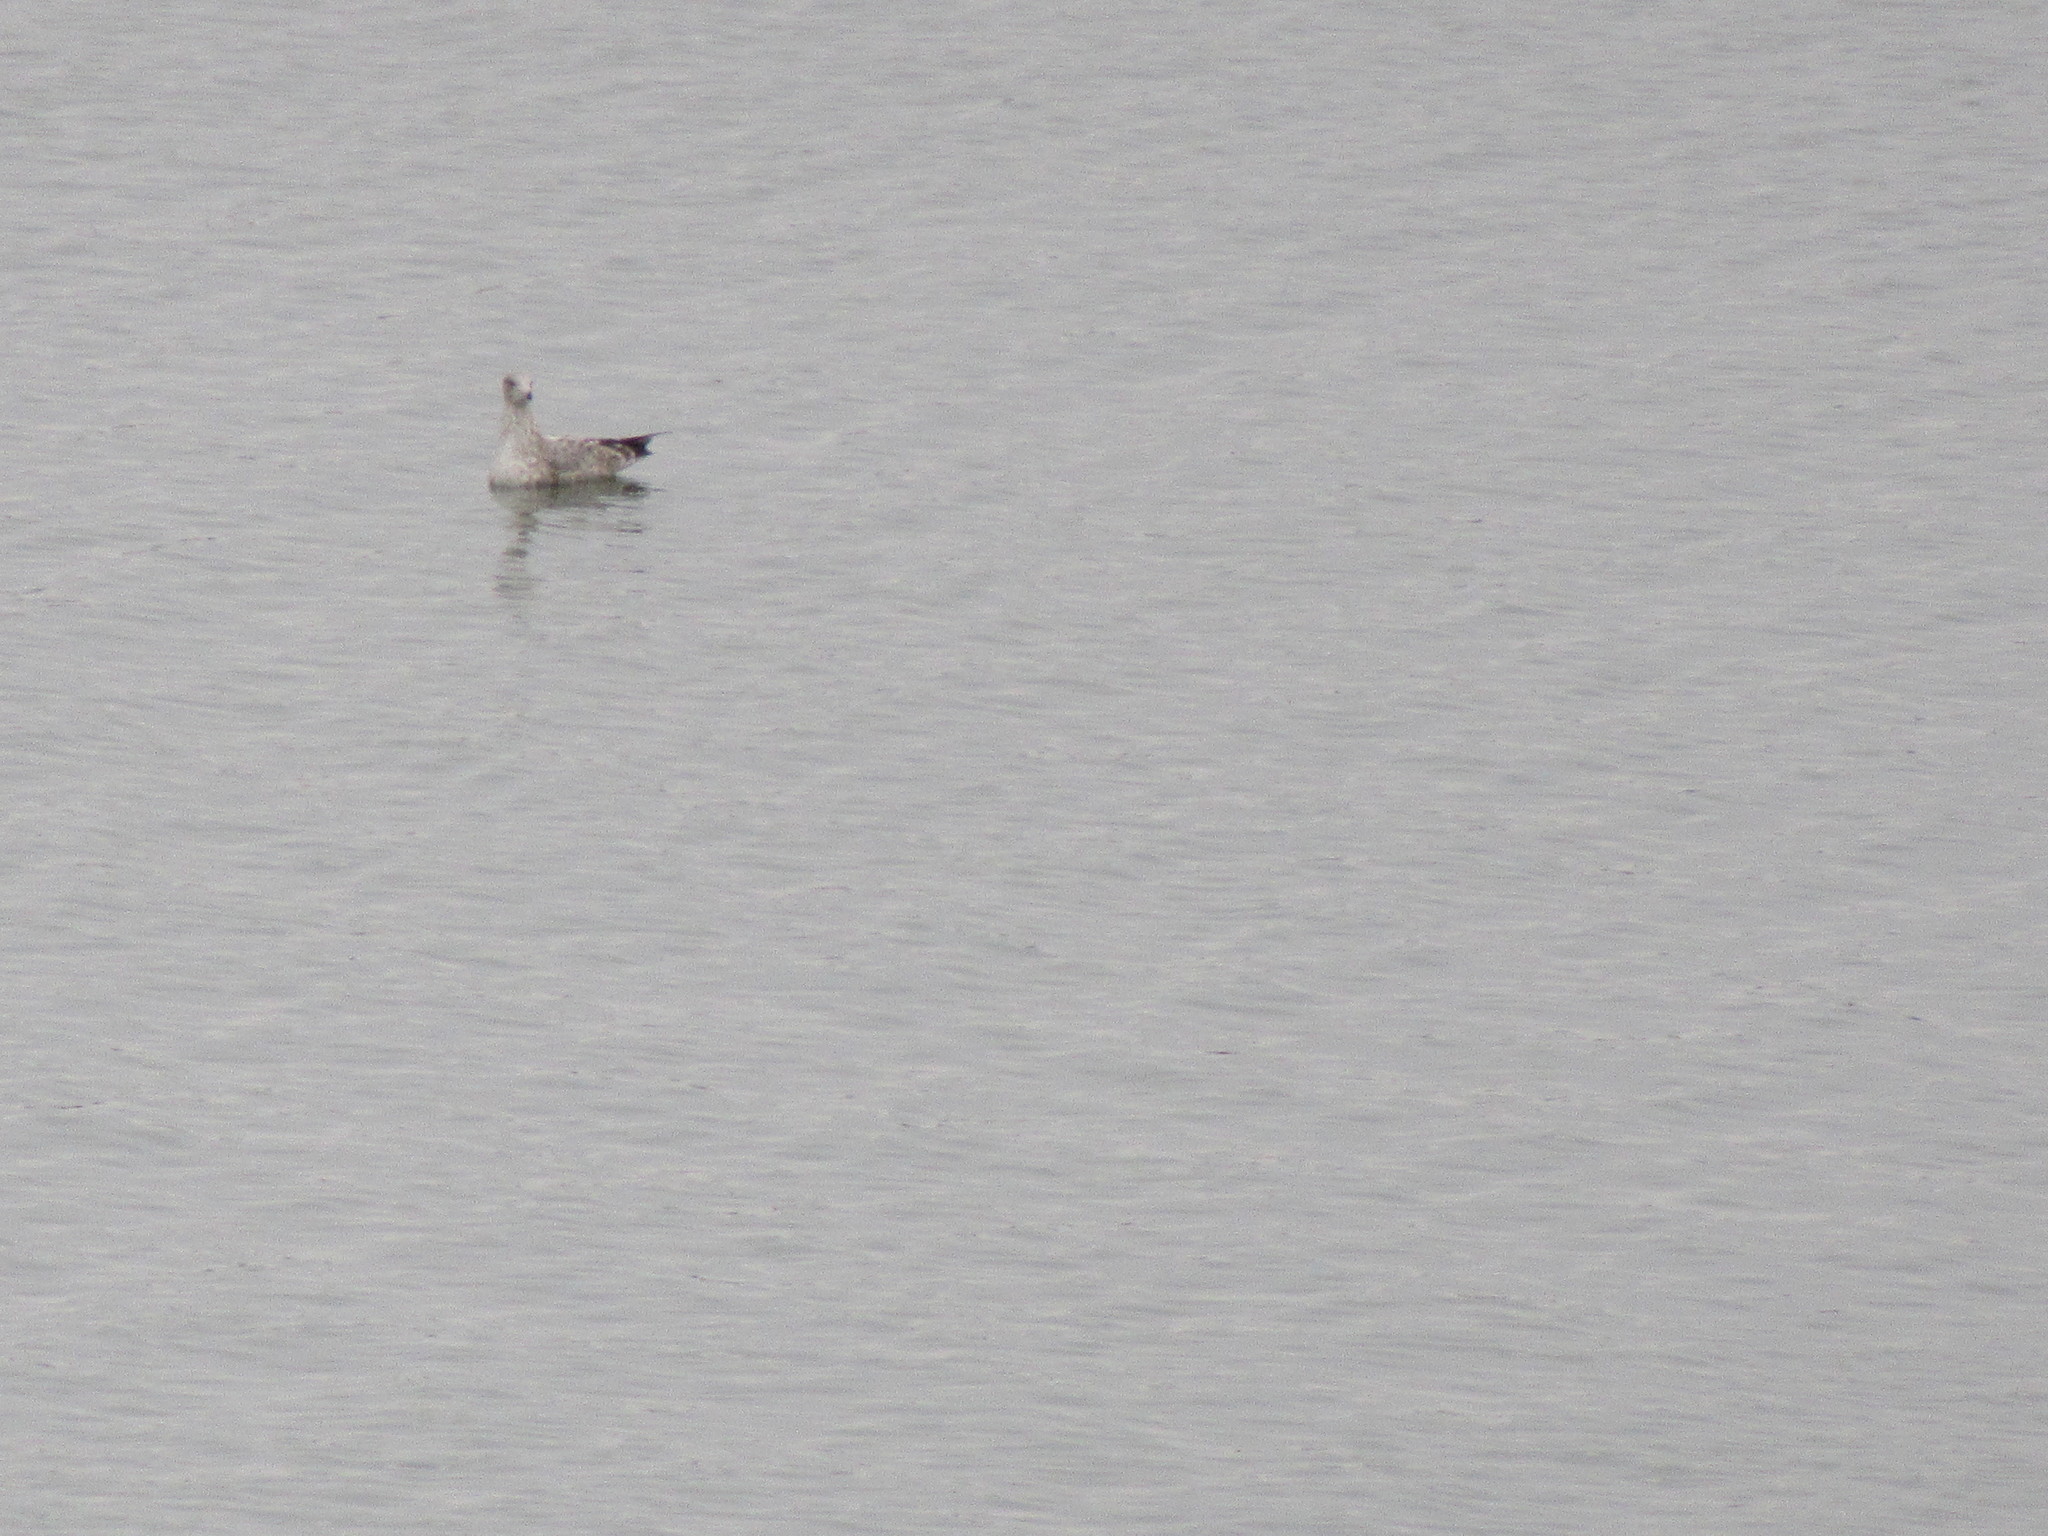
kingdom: Animalia
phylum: Chordata
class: Aves
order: Charadriiformes
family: Laridae
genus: Larus
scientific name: Larus argentatus
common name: Herring gull
